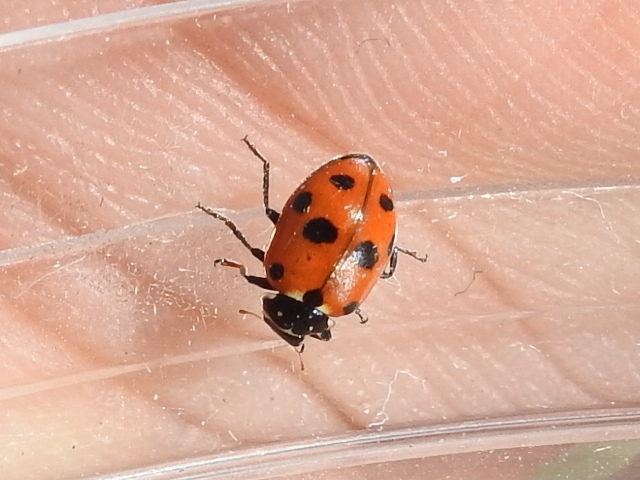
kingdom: Animalia
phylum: Arthropoda
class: Insecta
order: Coleoptera
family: Coccinellidae
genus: Hippodamia
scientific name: Hippodamia variegata
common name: Ladybird beetle
